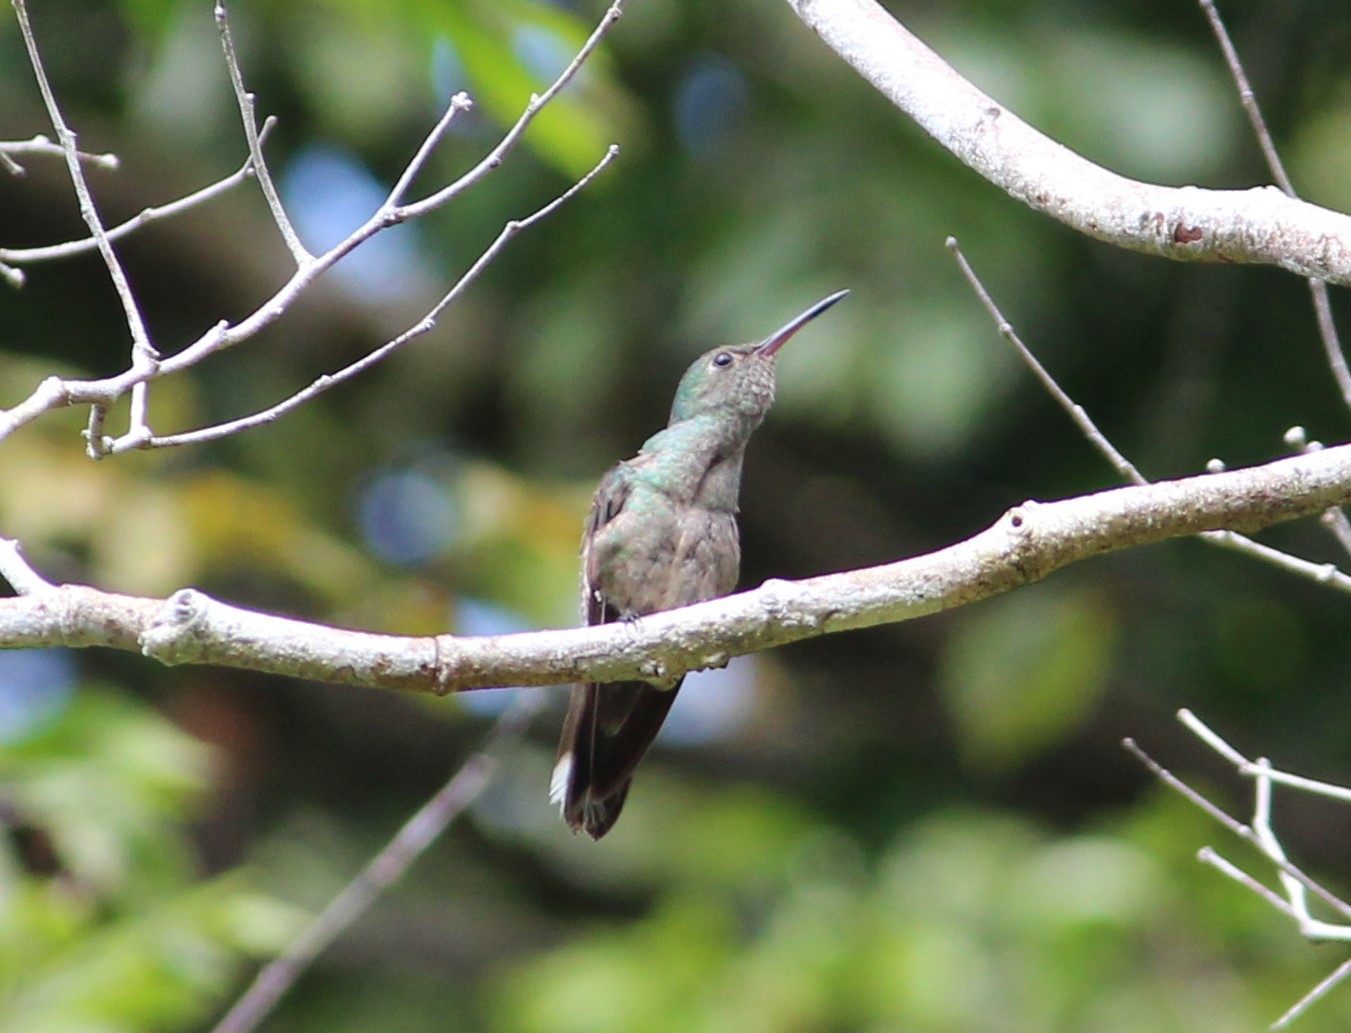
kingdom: Animalia
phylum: Chordata
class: Aves
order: Apodiformes
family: Trochilidae
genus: Phaeochroa
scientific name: Phaeochroa cuvierii
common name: Scaly-breasted hummingbird
